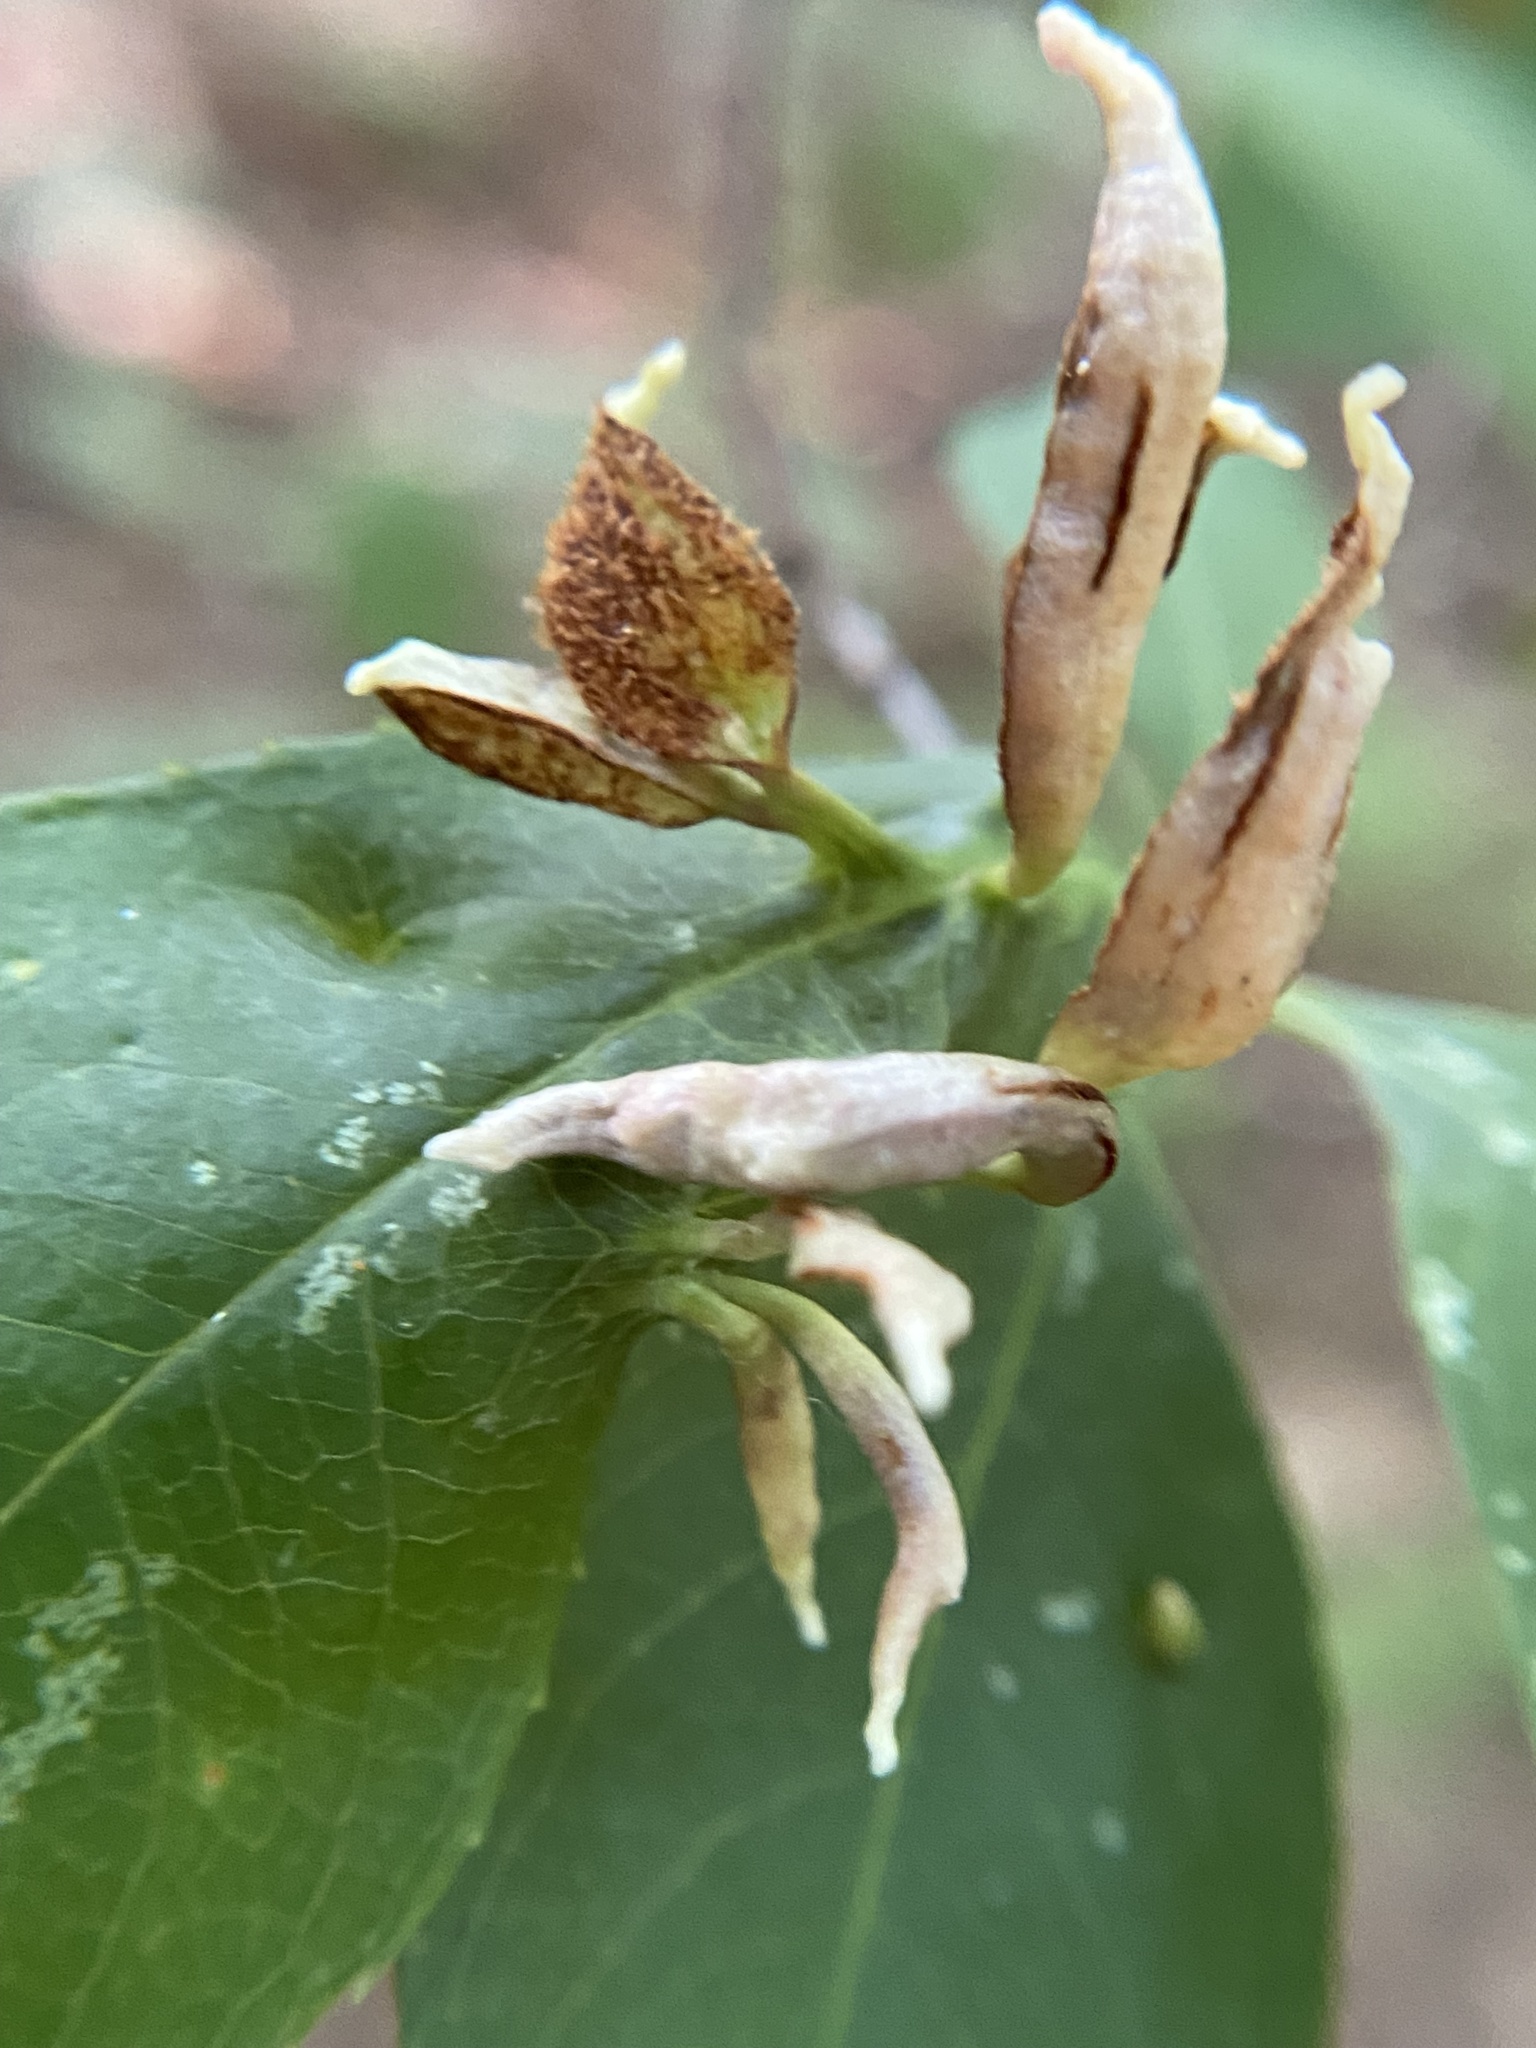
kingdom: Animalia
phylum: Arthropoda
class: Arachnida
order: Trombidiformes
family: Eriophyidae
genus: Eriophyes
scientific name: Eriophyes
